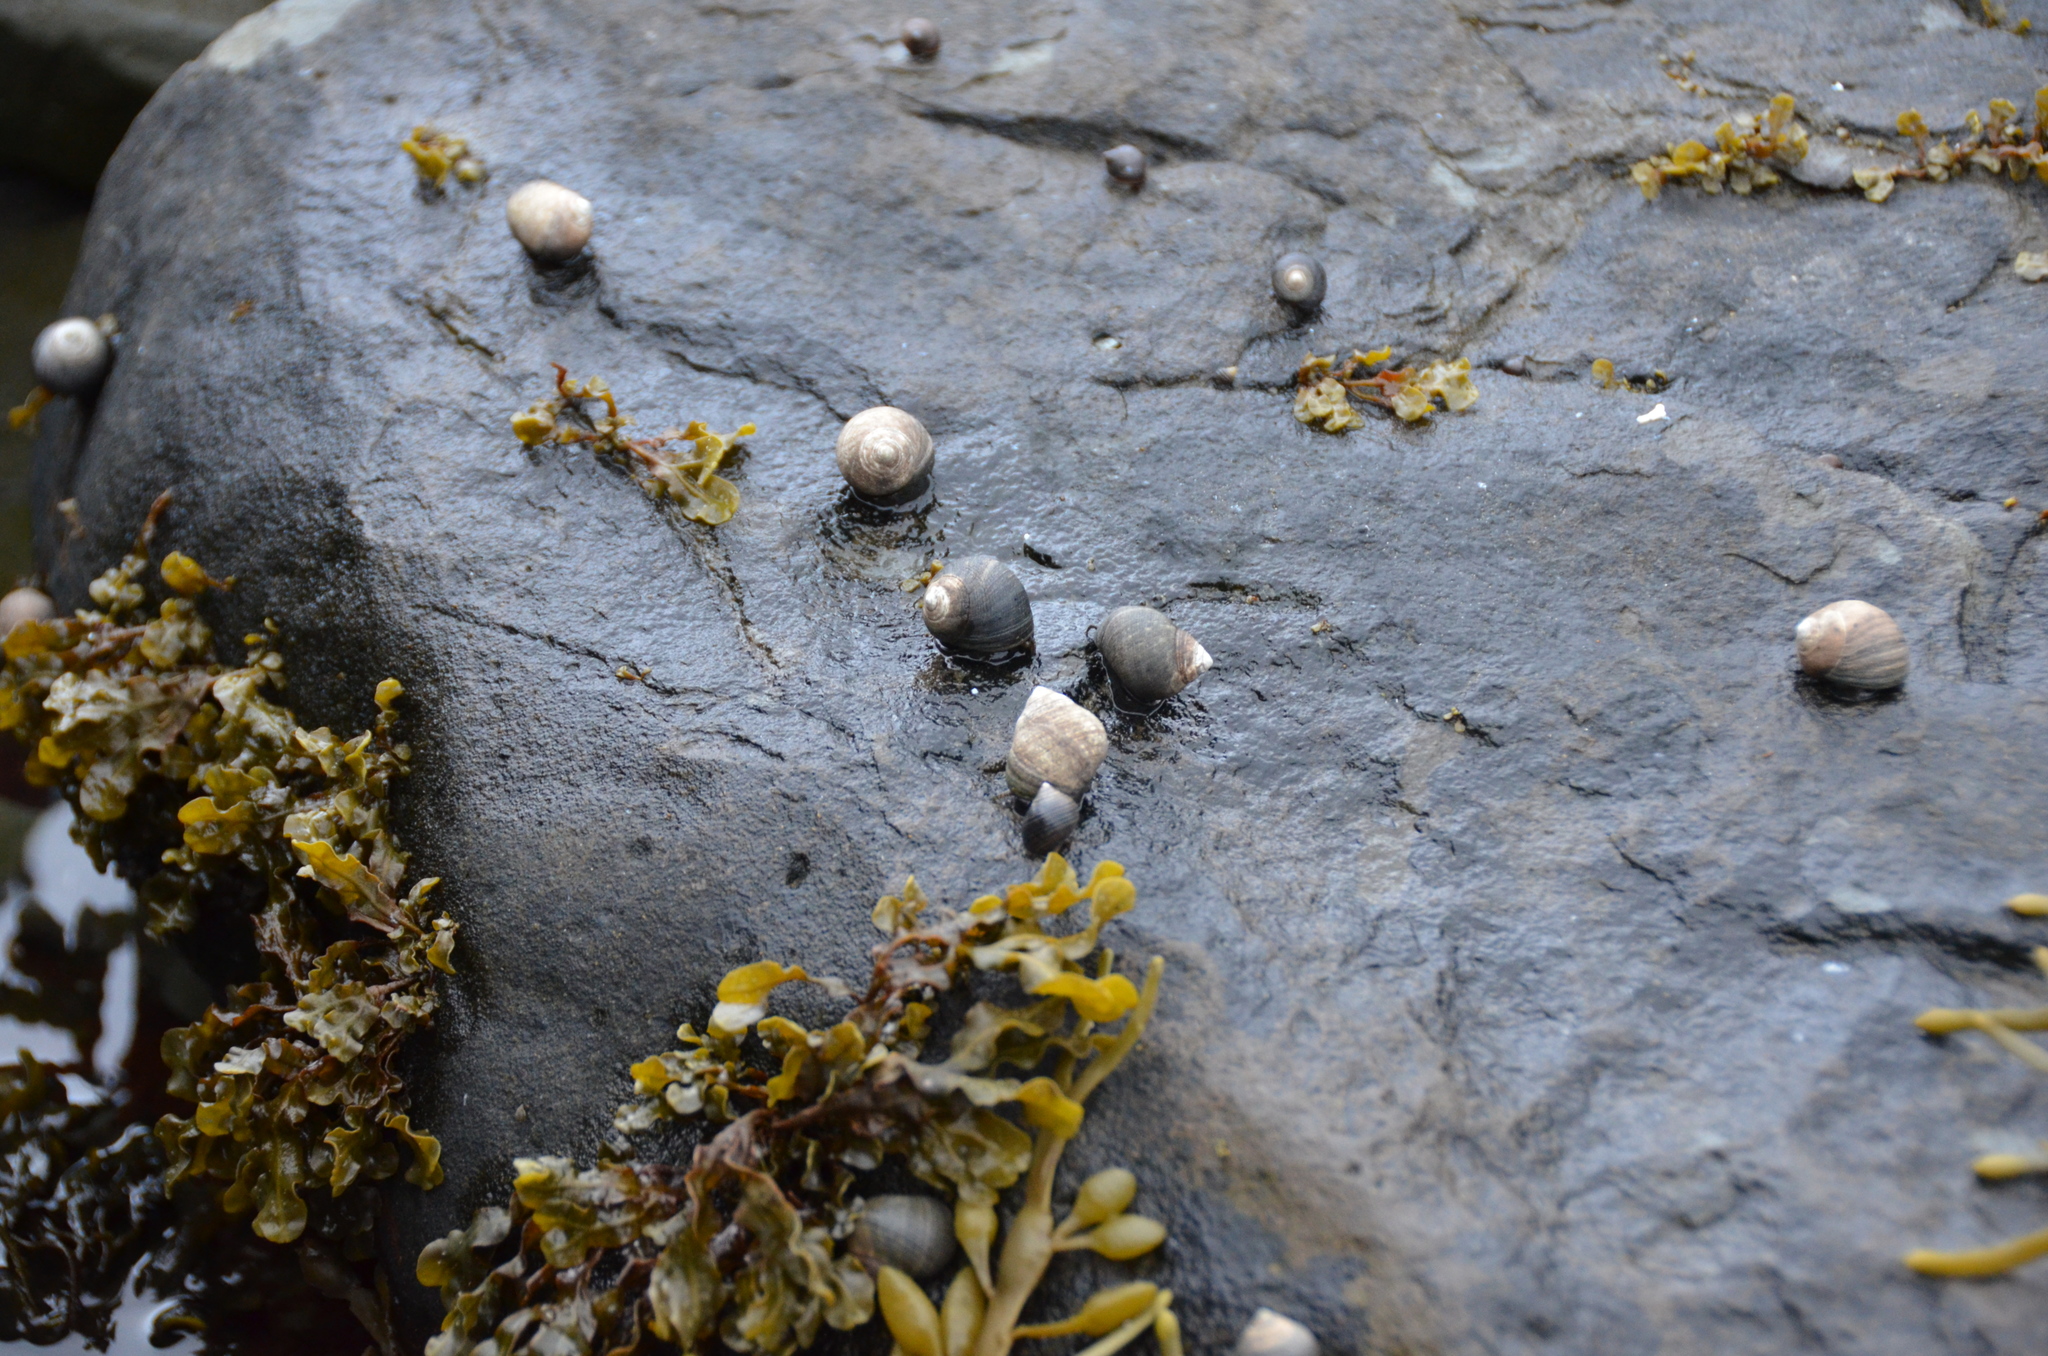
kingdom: Animalia
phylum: Mollusca
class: Gastropoda
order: Littorinimorpha
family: Littorinidae
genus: Littorina
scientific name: Littorina littorea
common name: Common periwinkle
